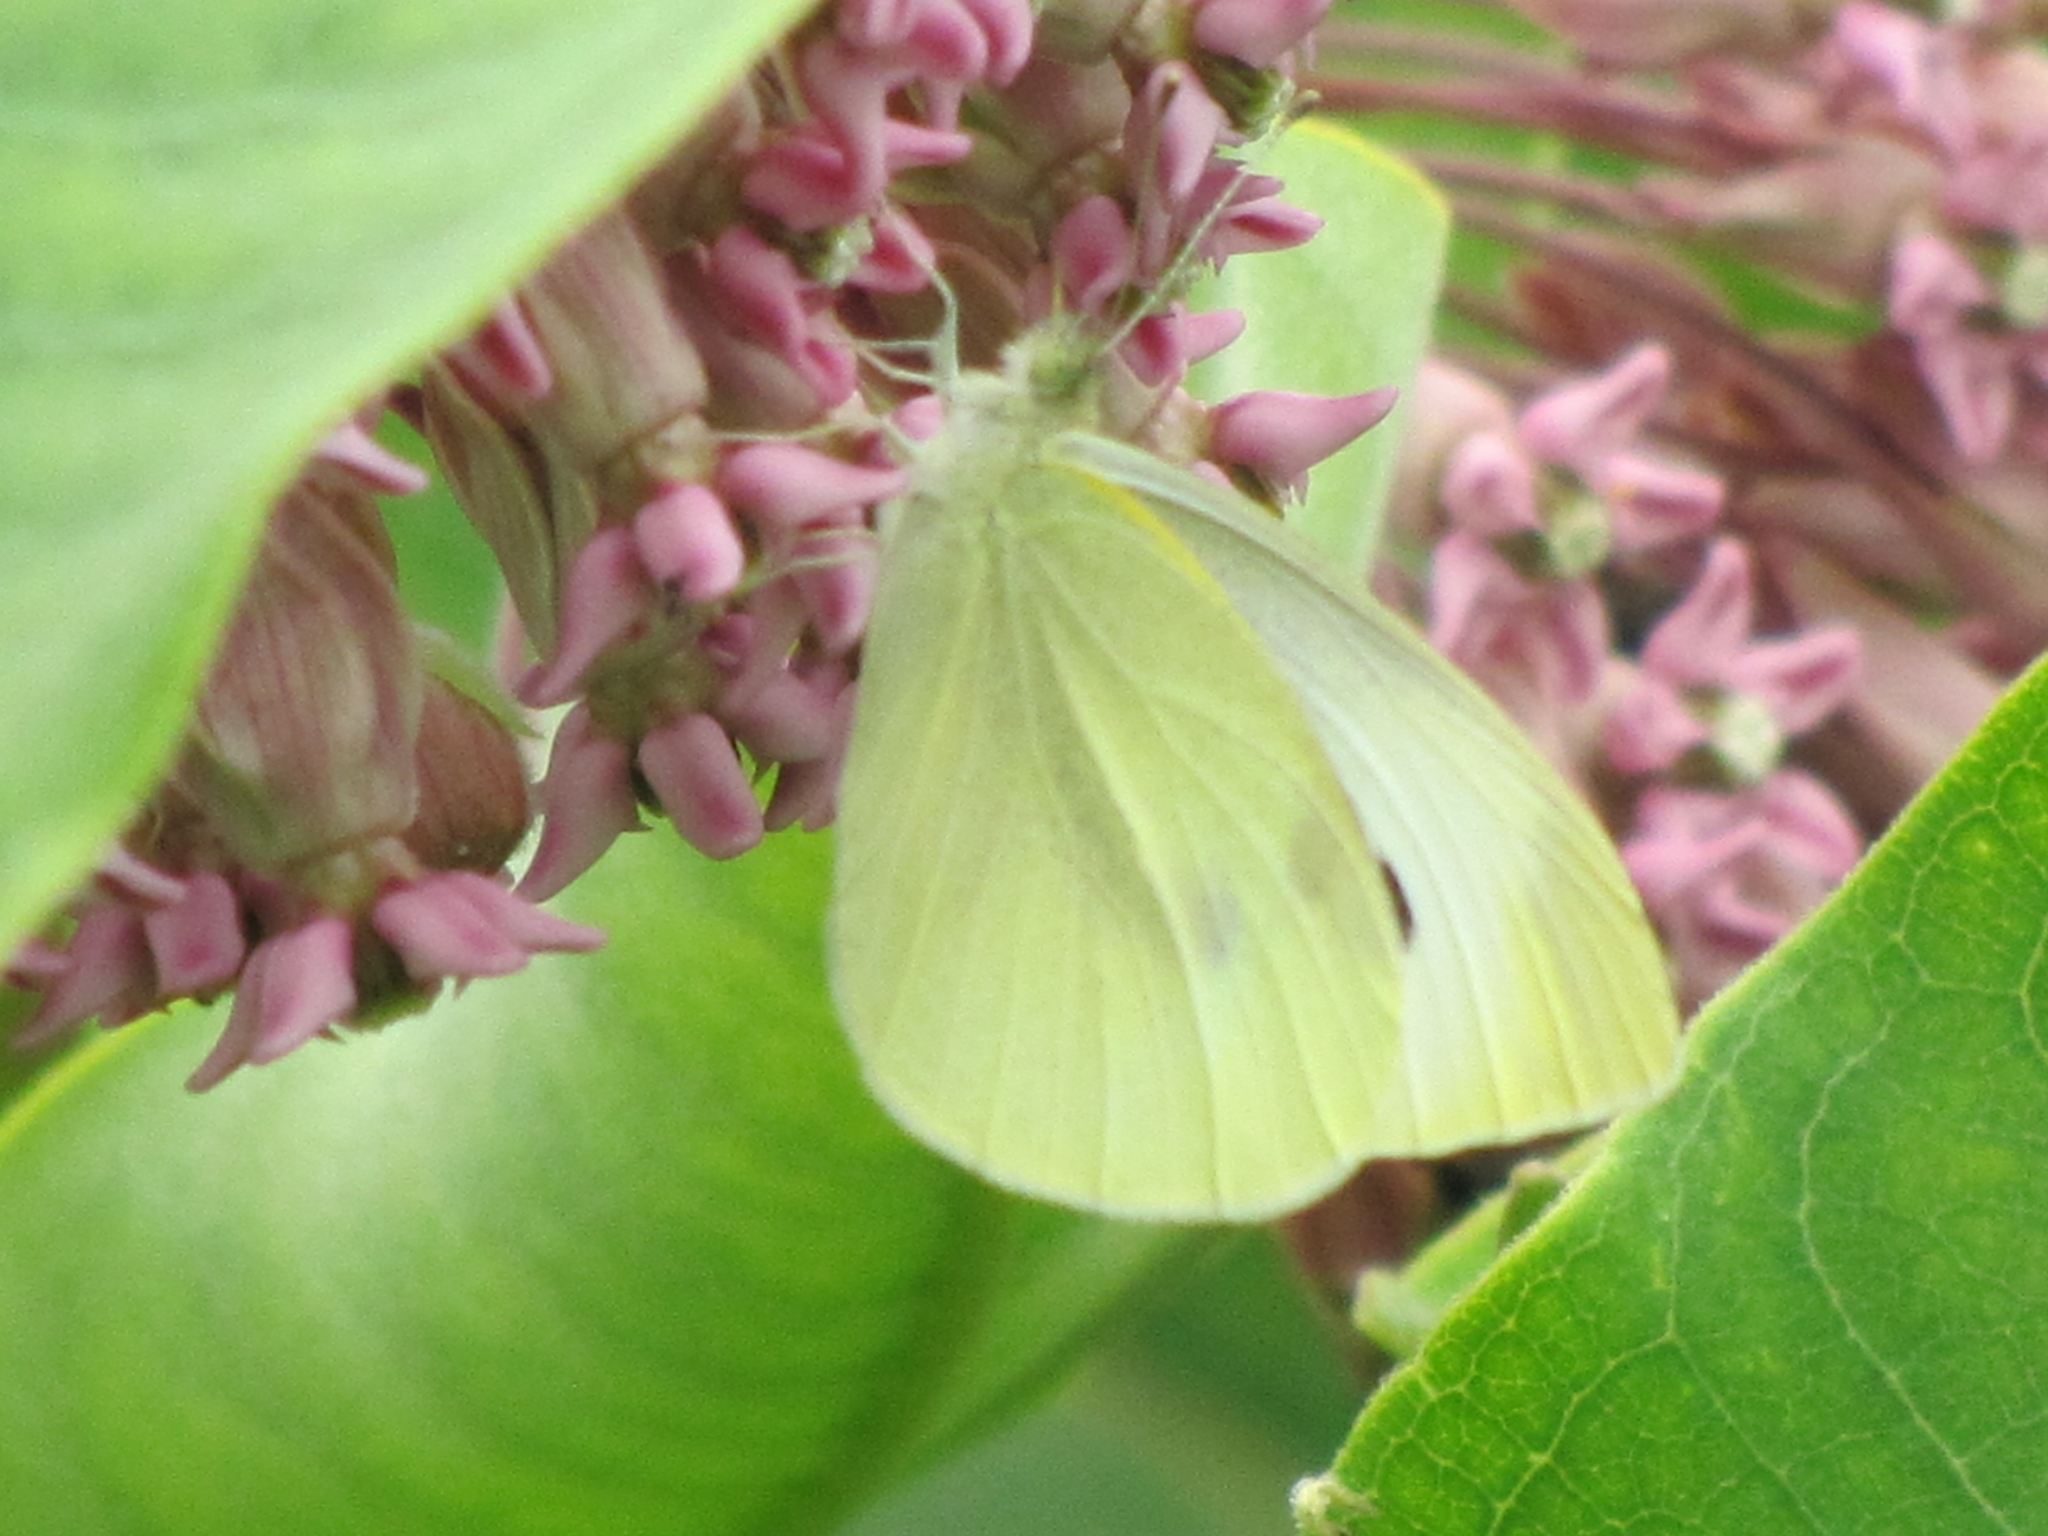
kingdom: Animalia
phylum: Arthropoda
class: Insecta
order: Lepidoptera
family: Pieridae
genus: Pieris
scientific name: Pieris rapae
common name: Small white
